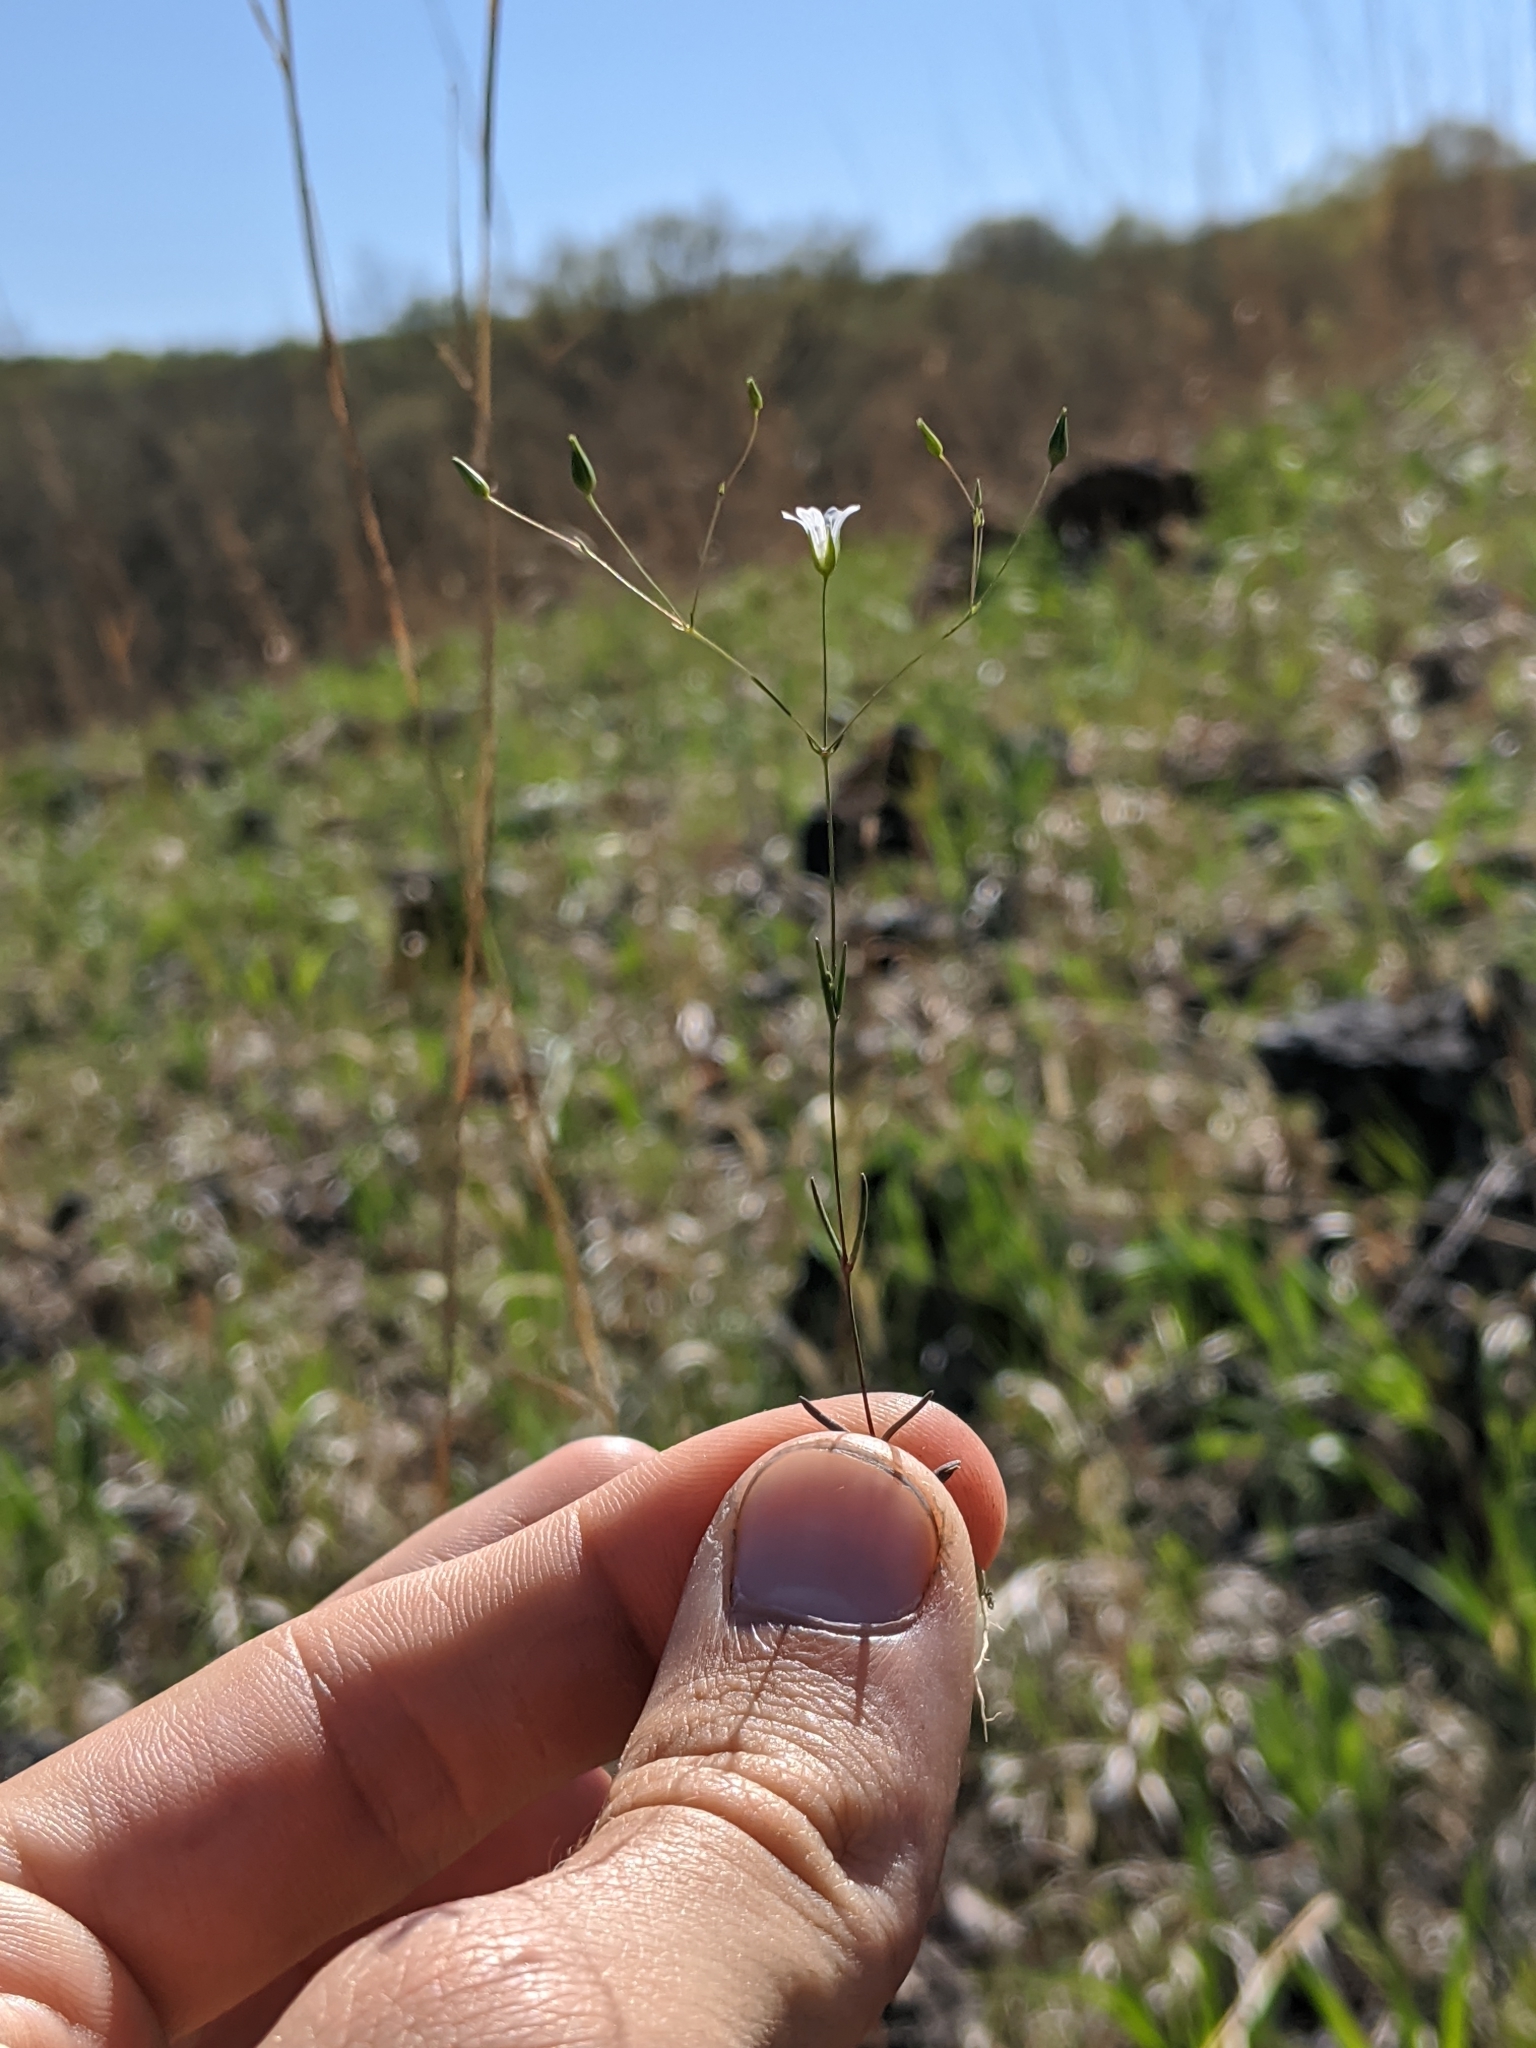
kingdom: Plantae
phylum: Tracheophyta
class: Magnoliopsida
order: Caryophyllales
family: Caryophyllaceae
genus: Mononeuria
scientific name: Mononeuria patula
